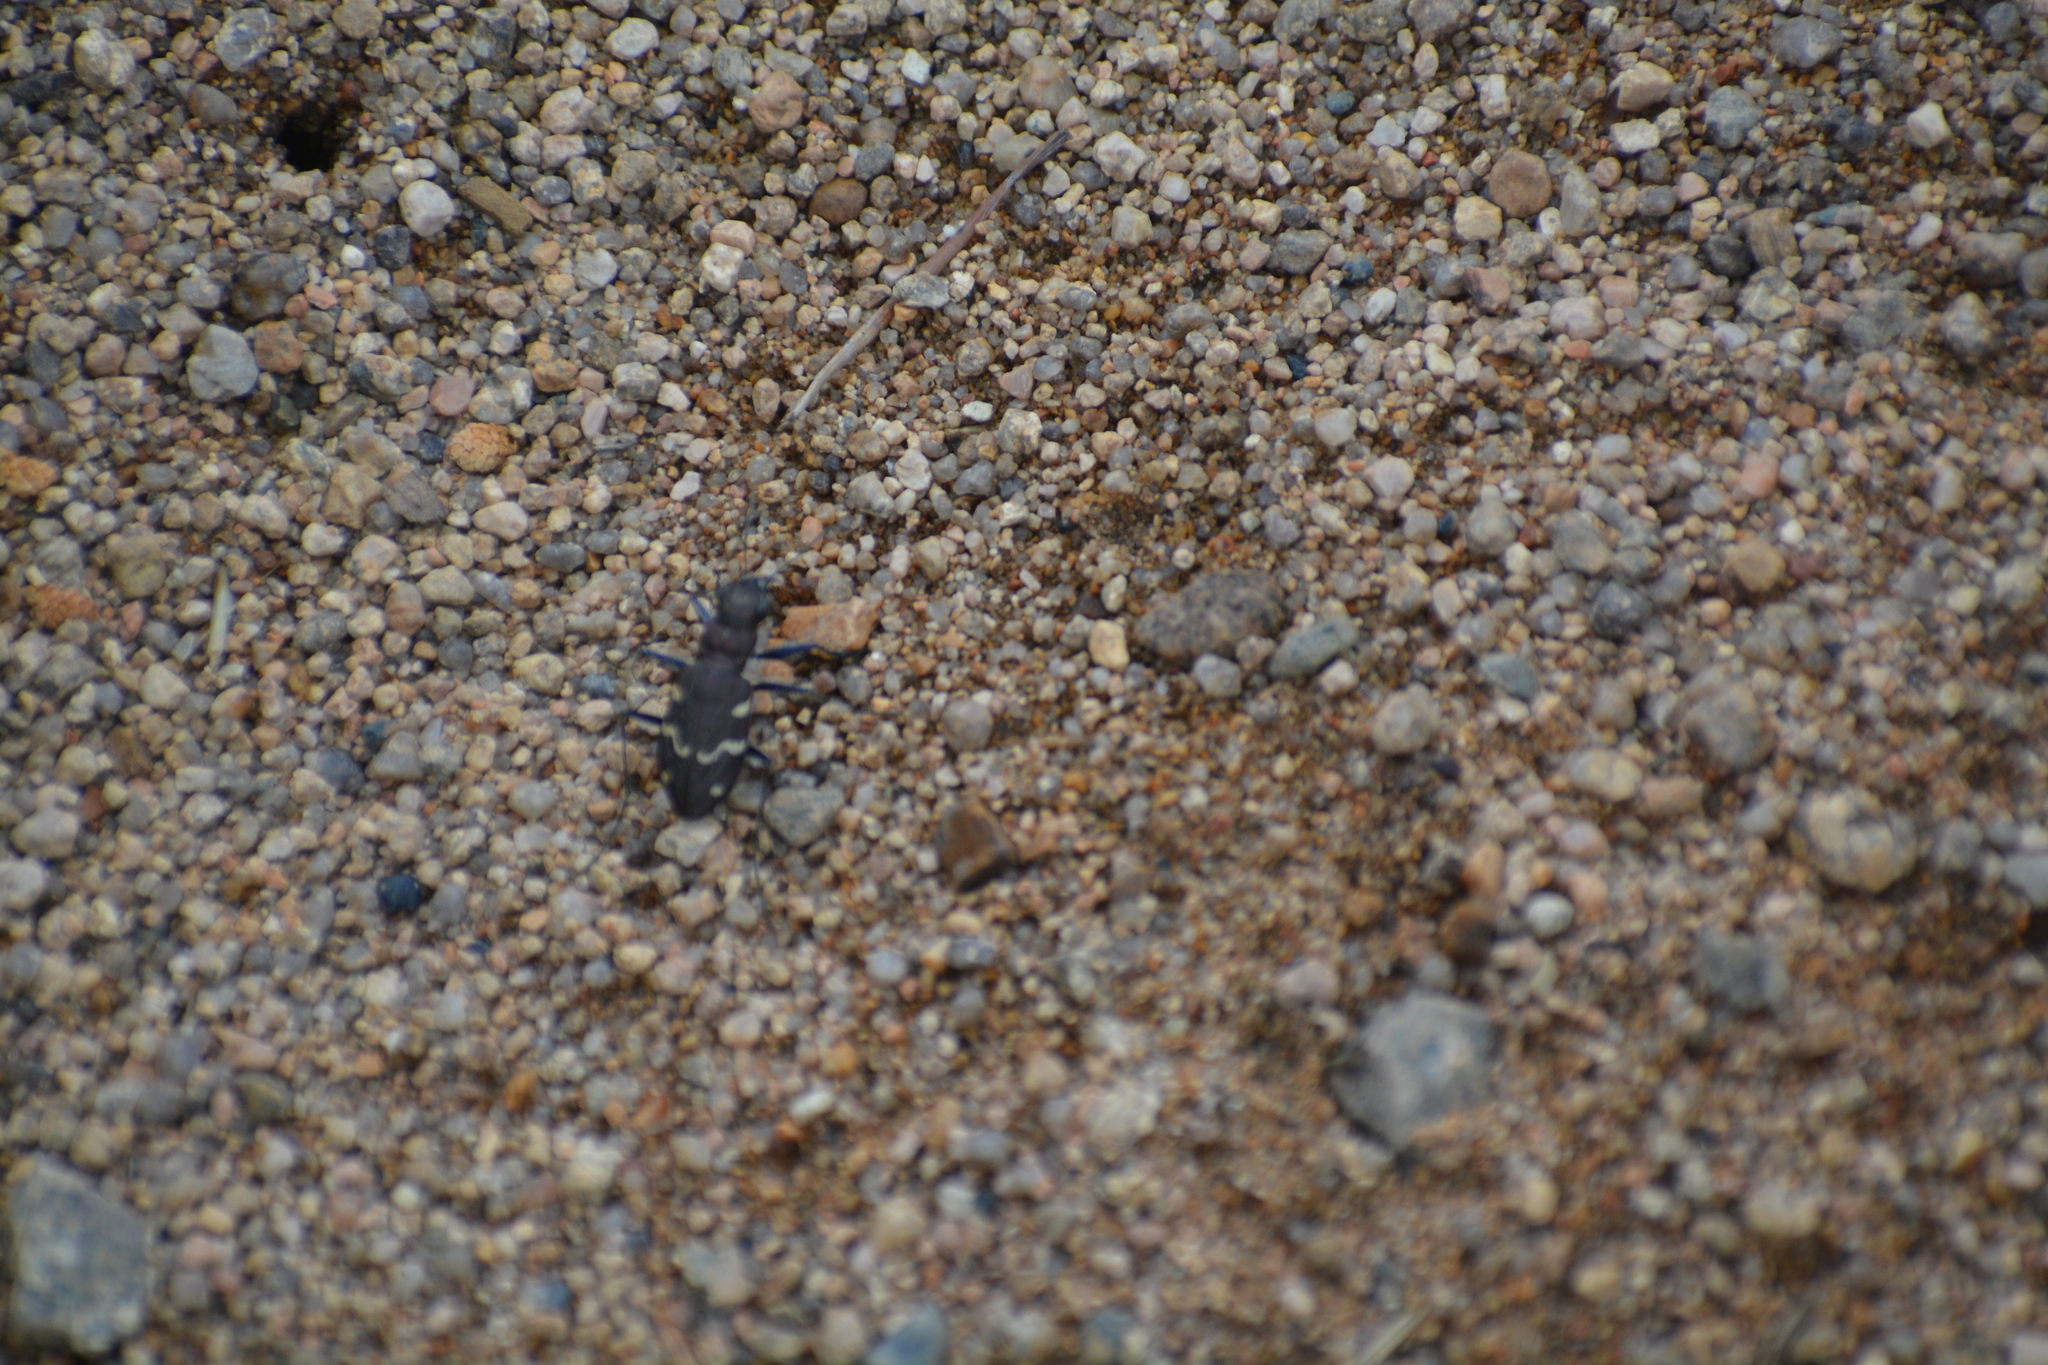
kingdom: Animalia
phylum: Arthropoda
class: Insecta
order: Coleoptera
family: Carabidae
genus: Cicindela
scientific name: Cicindela sylvatica
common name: Heath tiger beetle
